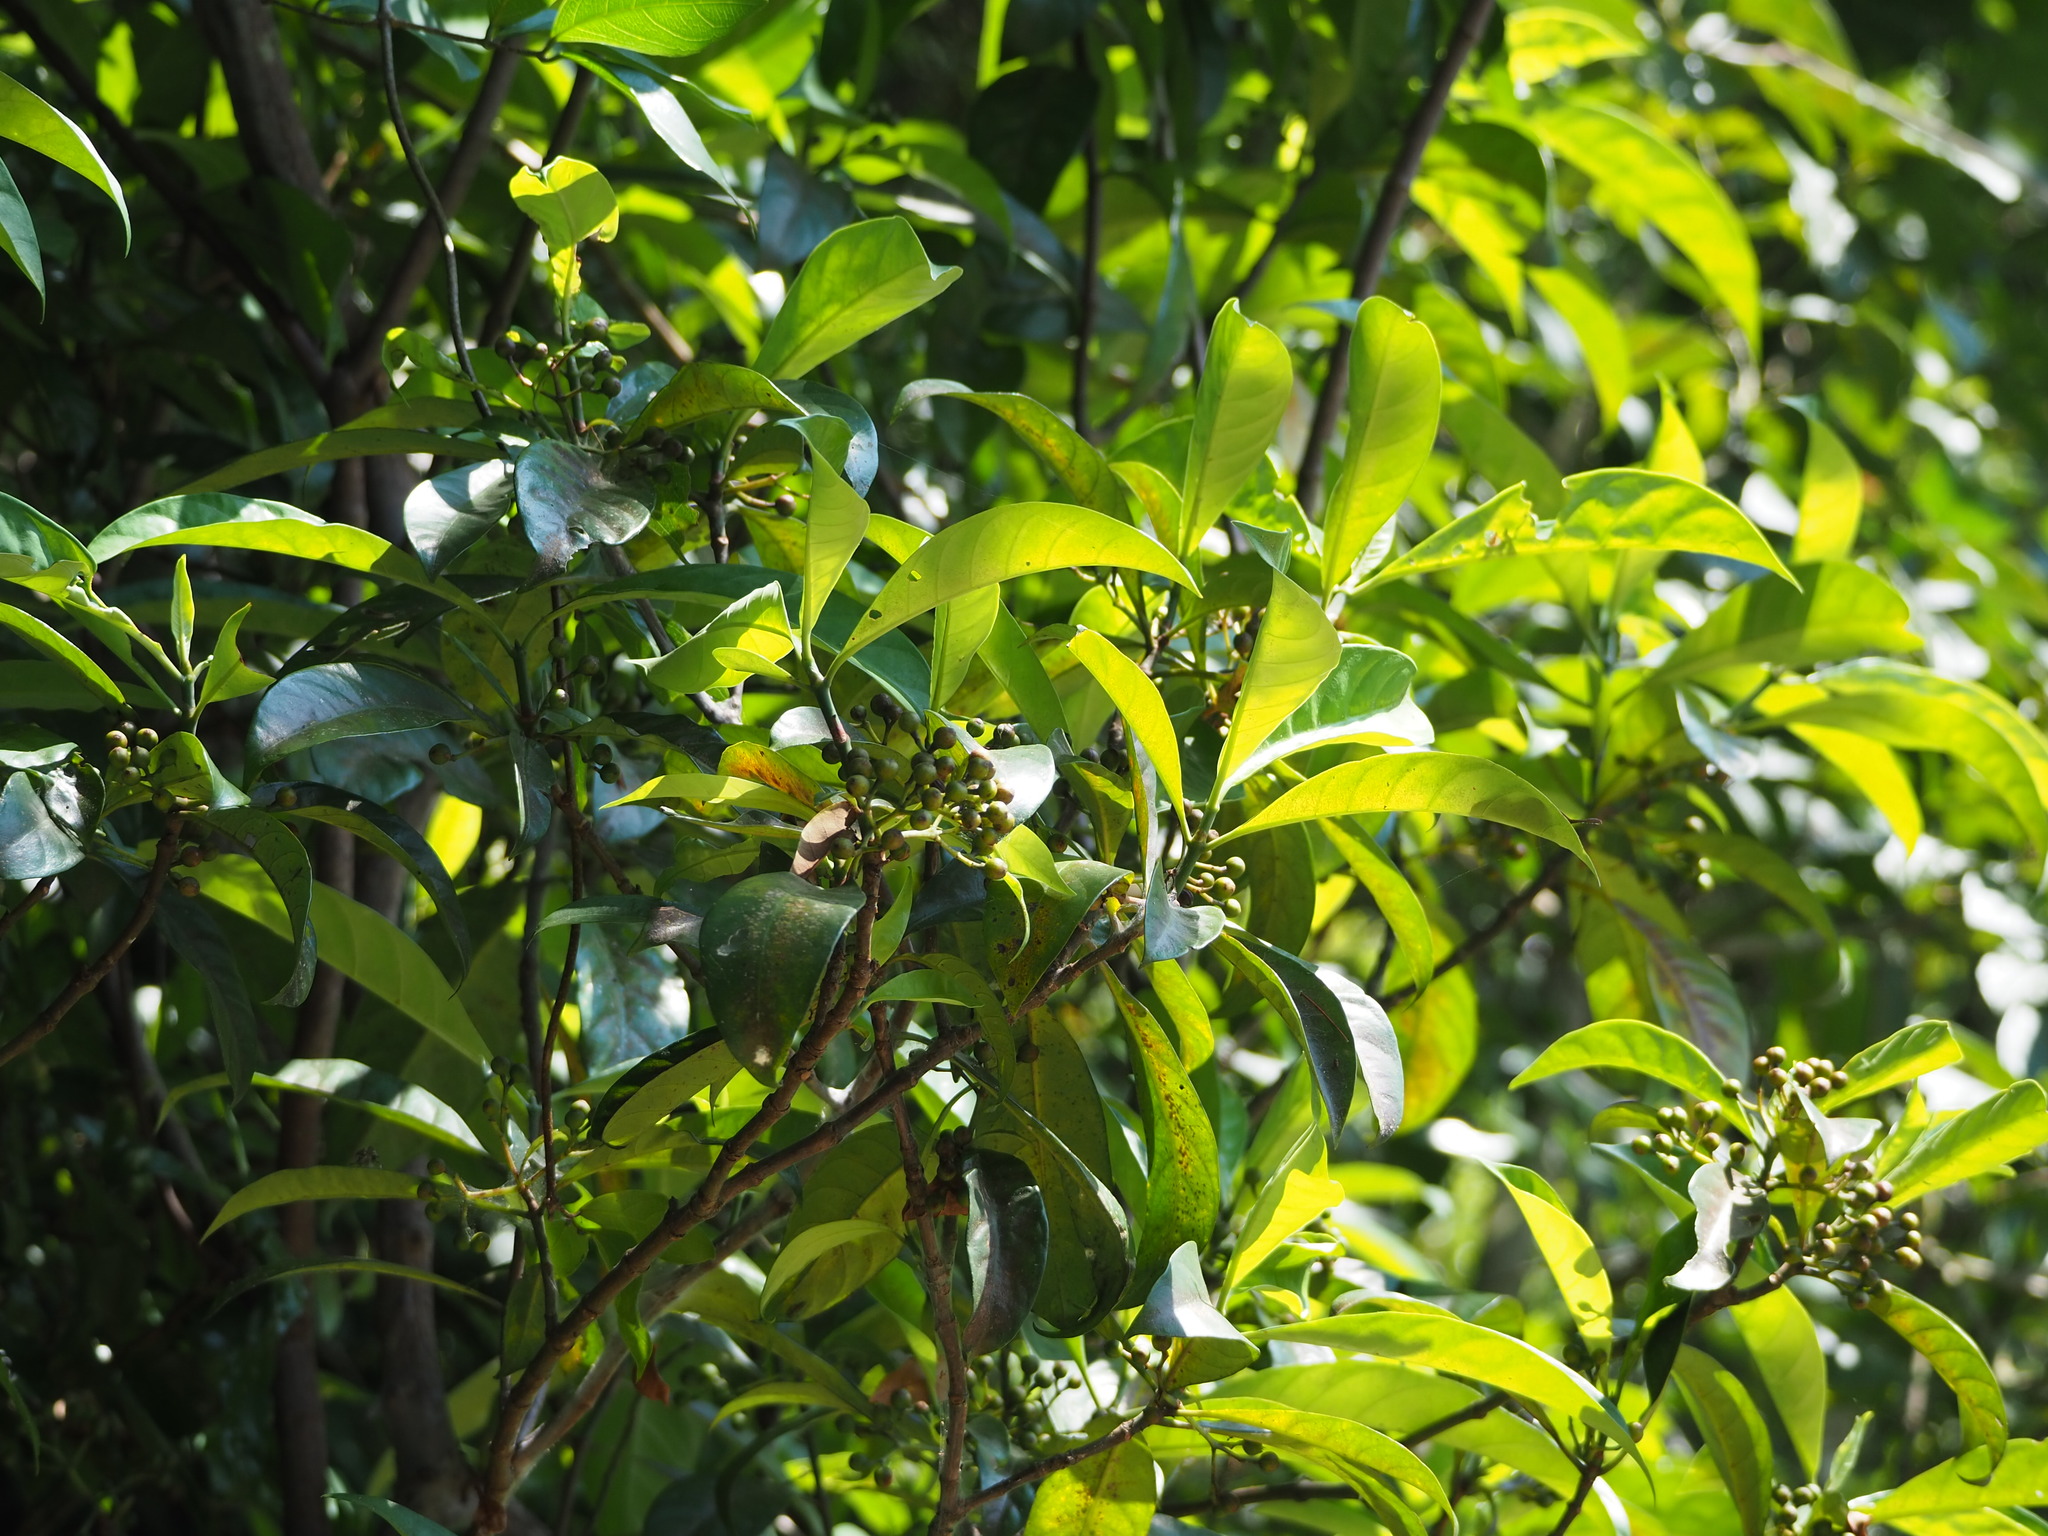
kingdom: Plantae
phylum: Tracheophyta
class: Magnoliopsida
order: Gentianales
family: Rubiaceae
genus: Psychotria
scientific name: Psychotria asiatica
